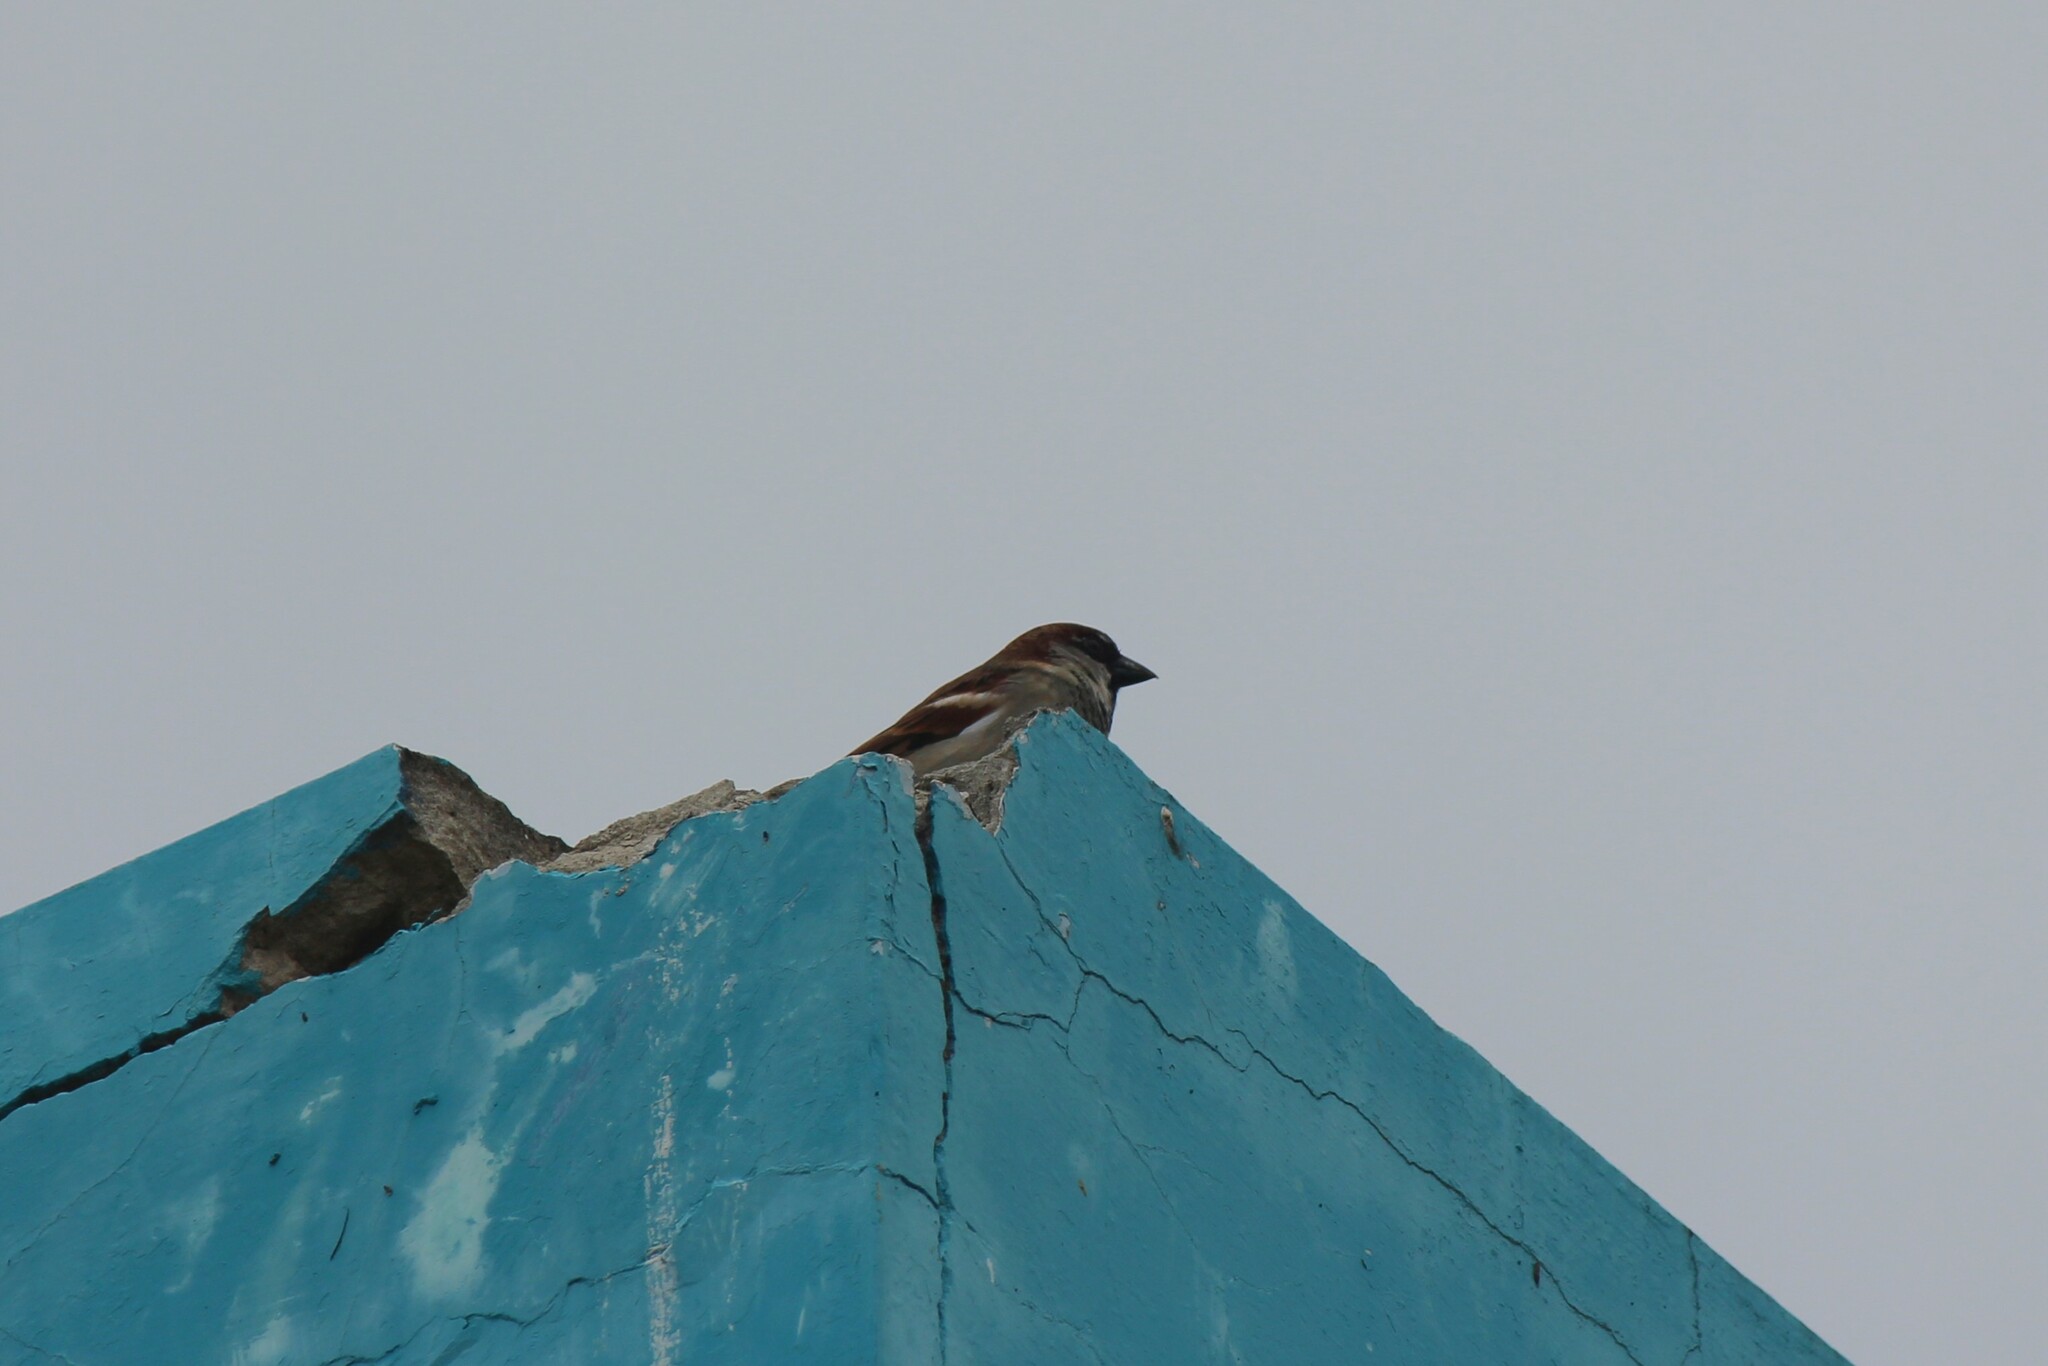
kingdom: Animalia
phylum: Chordata
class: Aves
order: Passeriformes
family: Passeridae
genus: Passer
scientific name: Passer domesticus
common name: House sparrow
